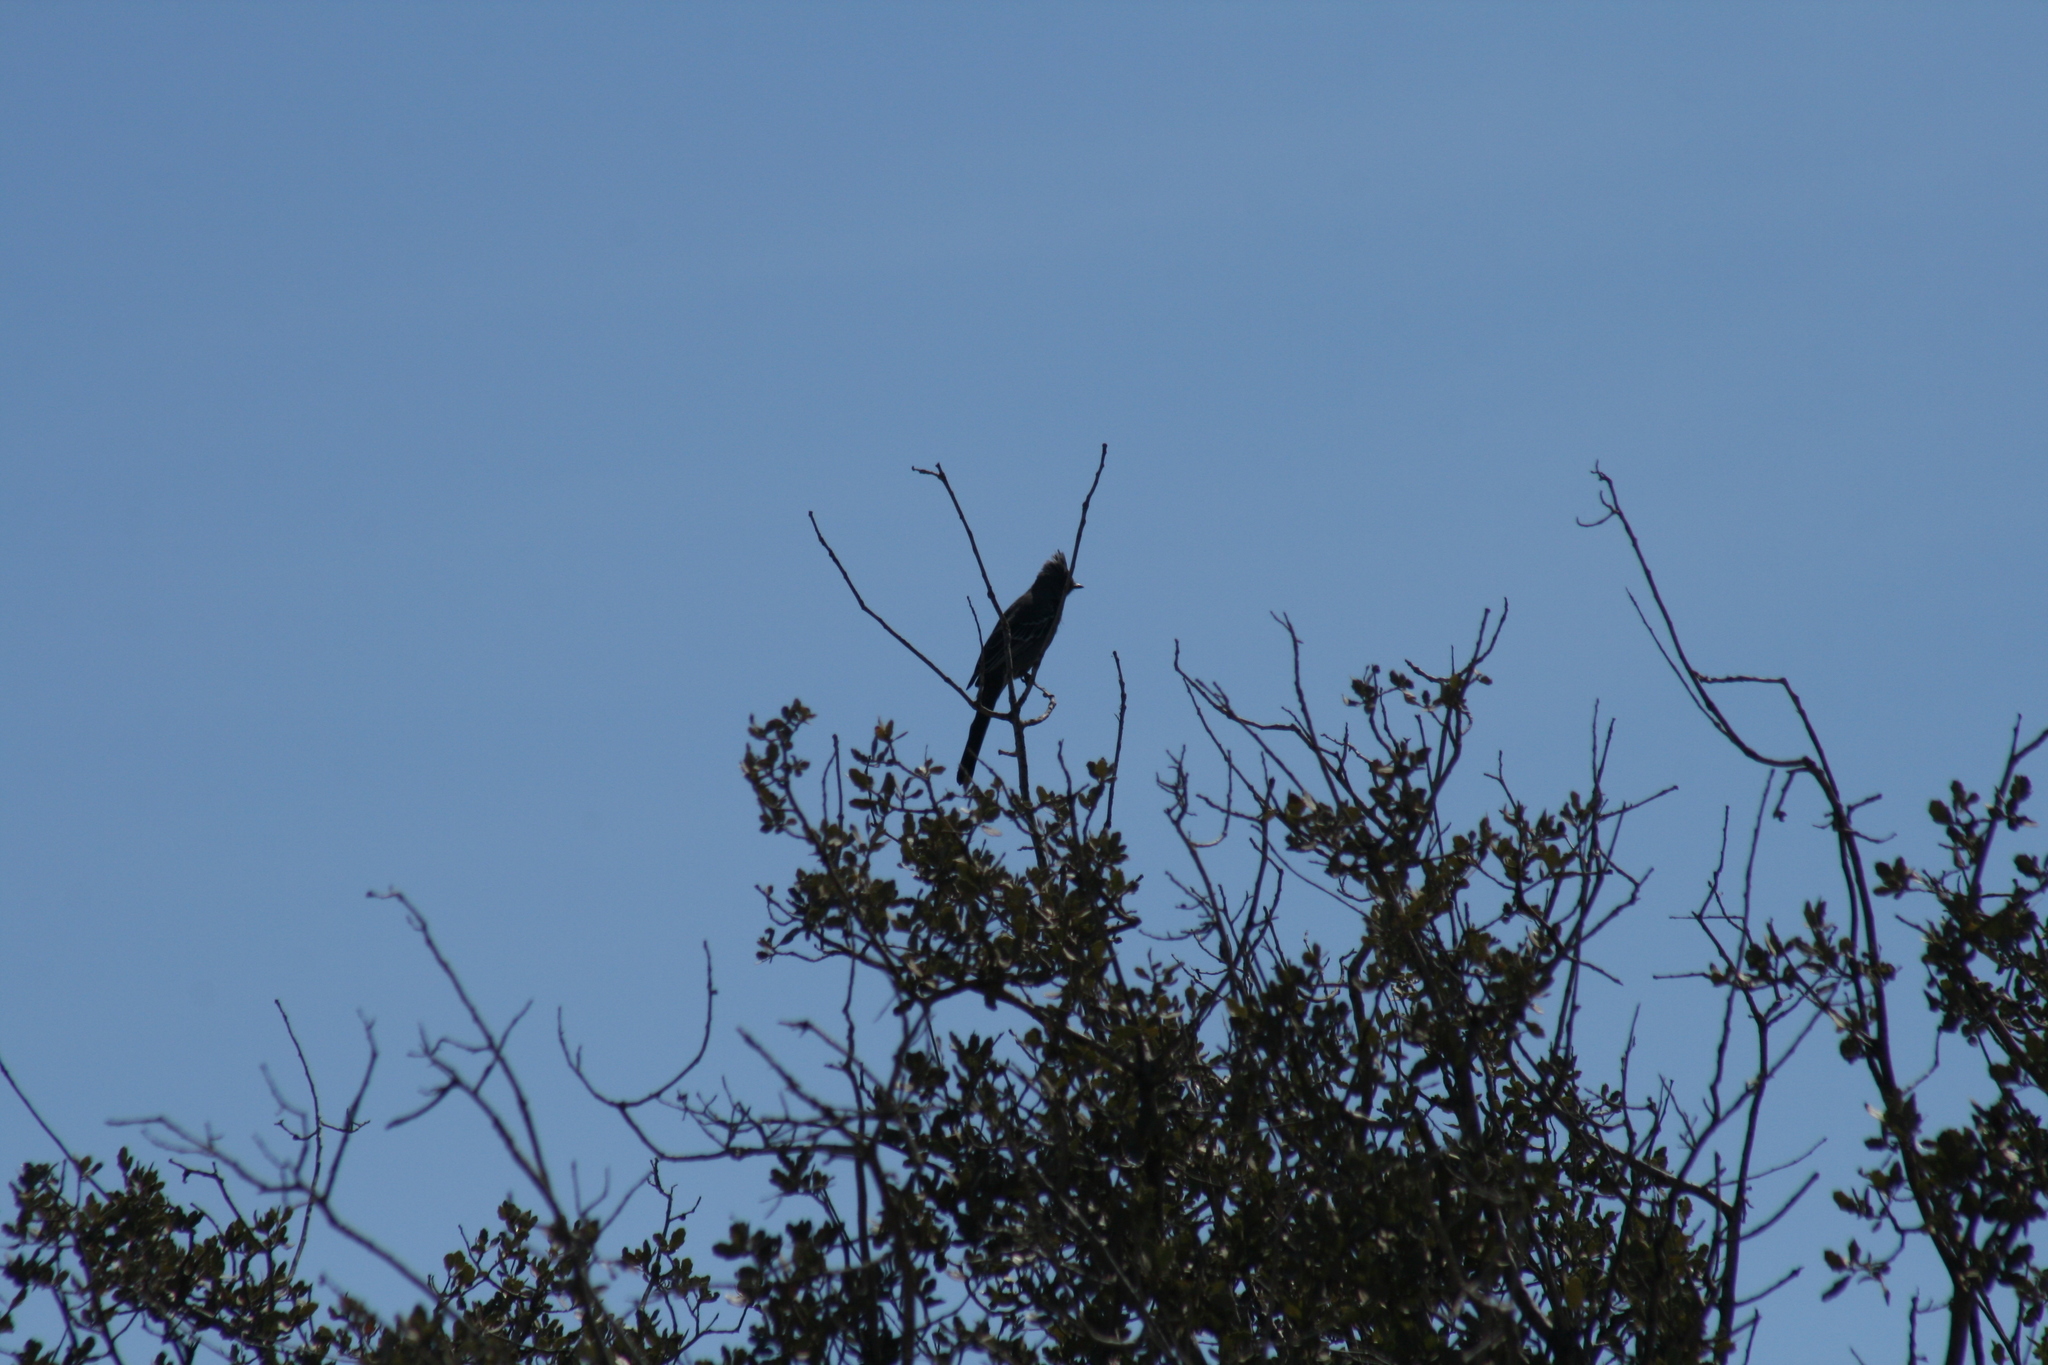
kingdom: Animalia
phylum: Chordata
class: Aves
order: Passeriformes
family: Ptilogonatidae
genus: Phainopepla
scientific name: Phainopepla nitens
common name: Phainopepla
